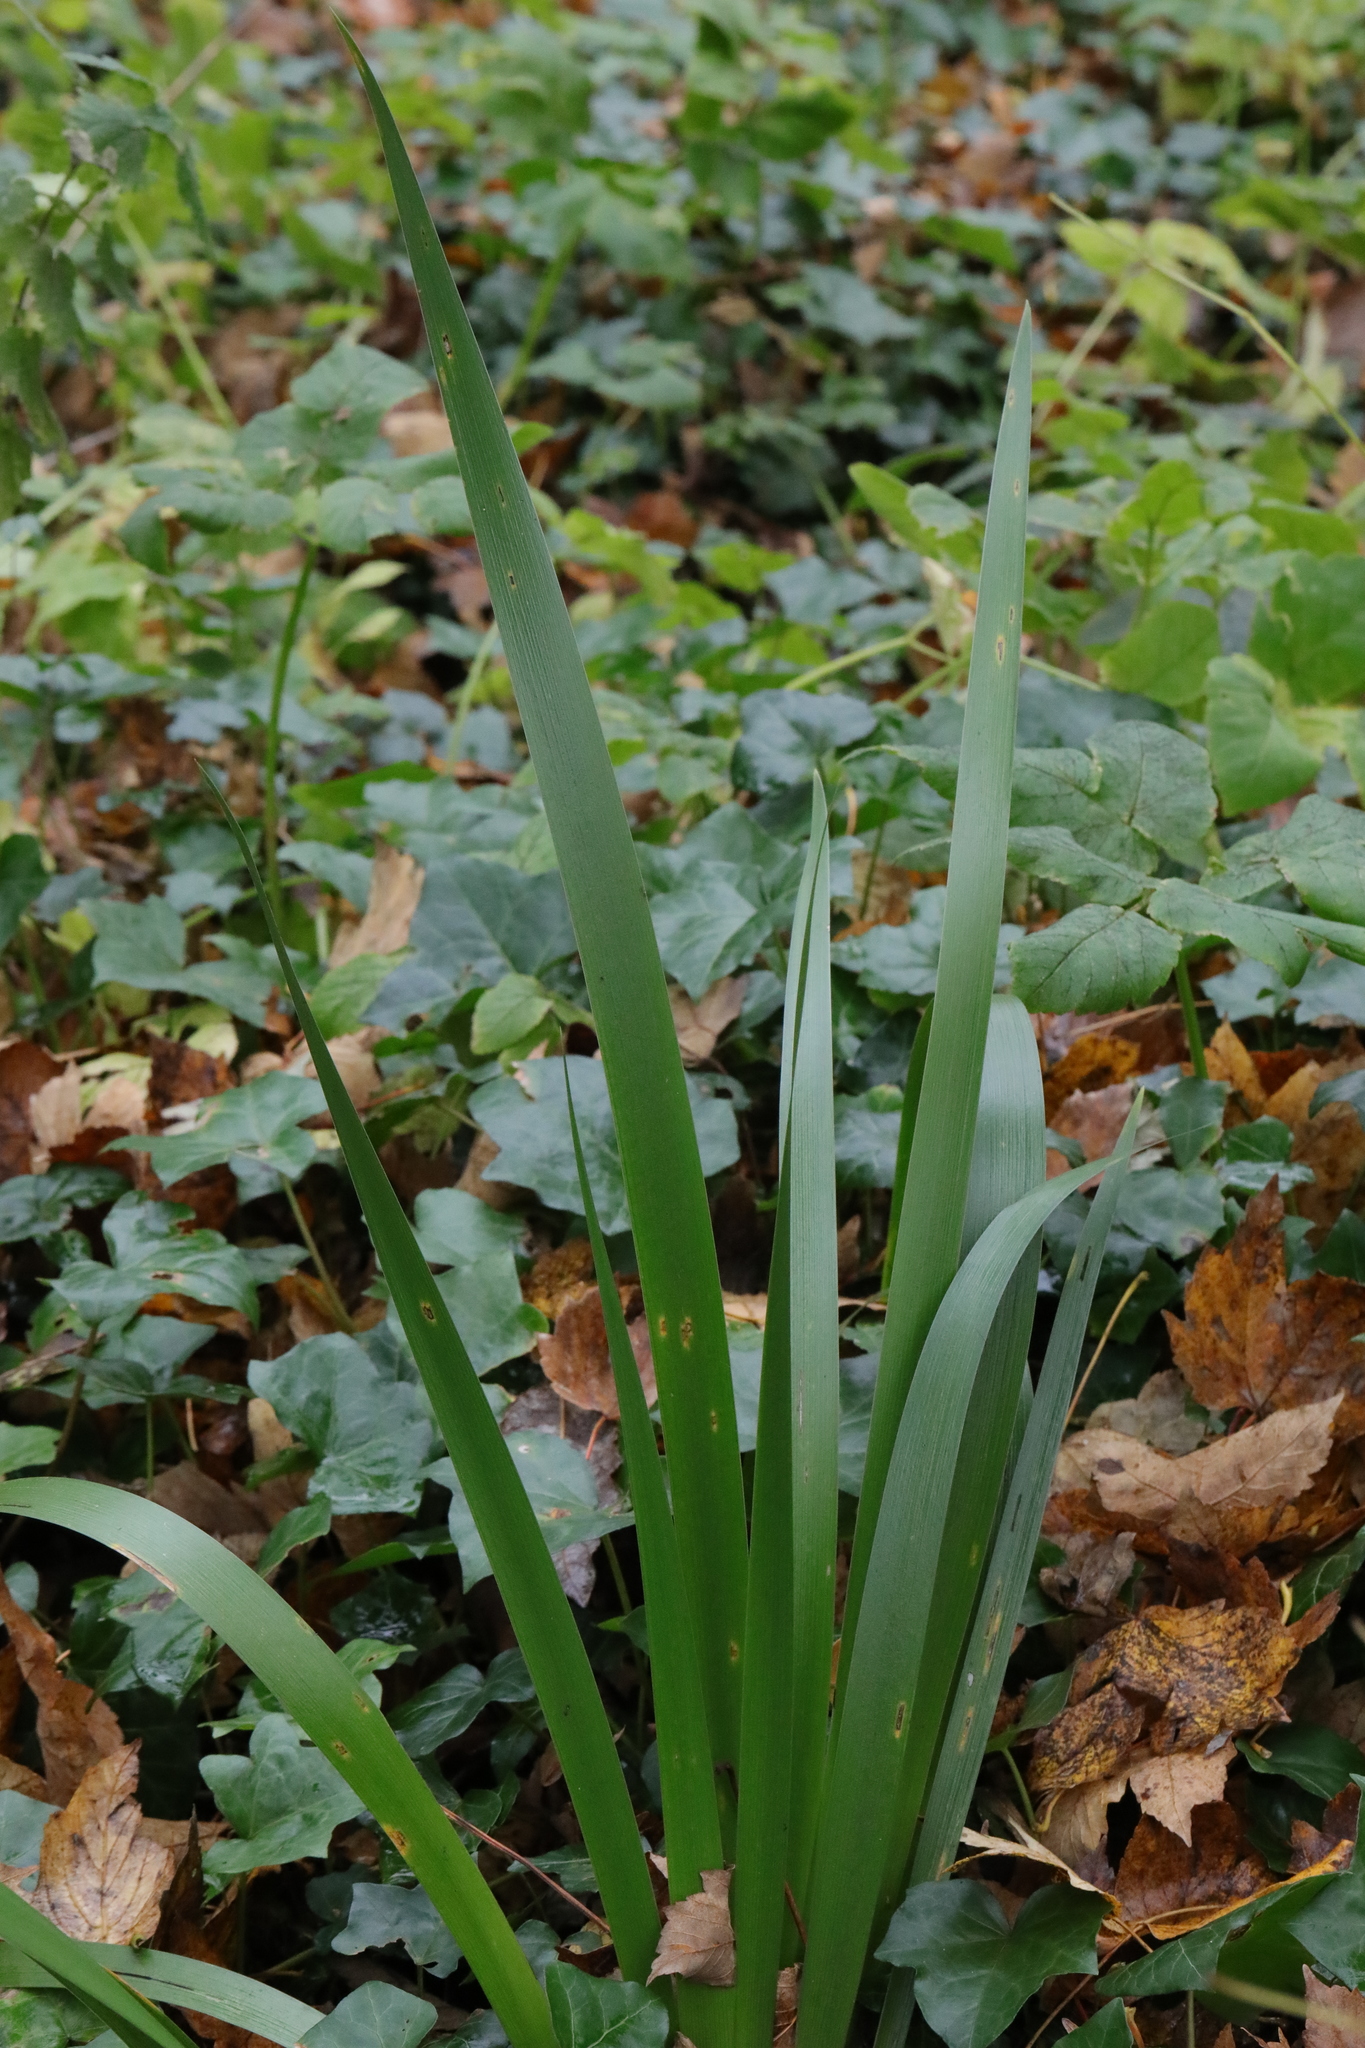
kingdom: Plantae
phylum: Tracheophyta
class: Liliopsida
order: Asparagales
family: Iridaceae
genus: Iris
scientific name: Iris foetidissima
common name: Stinking iris
